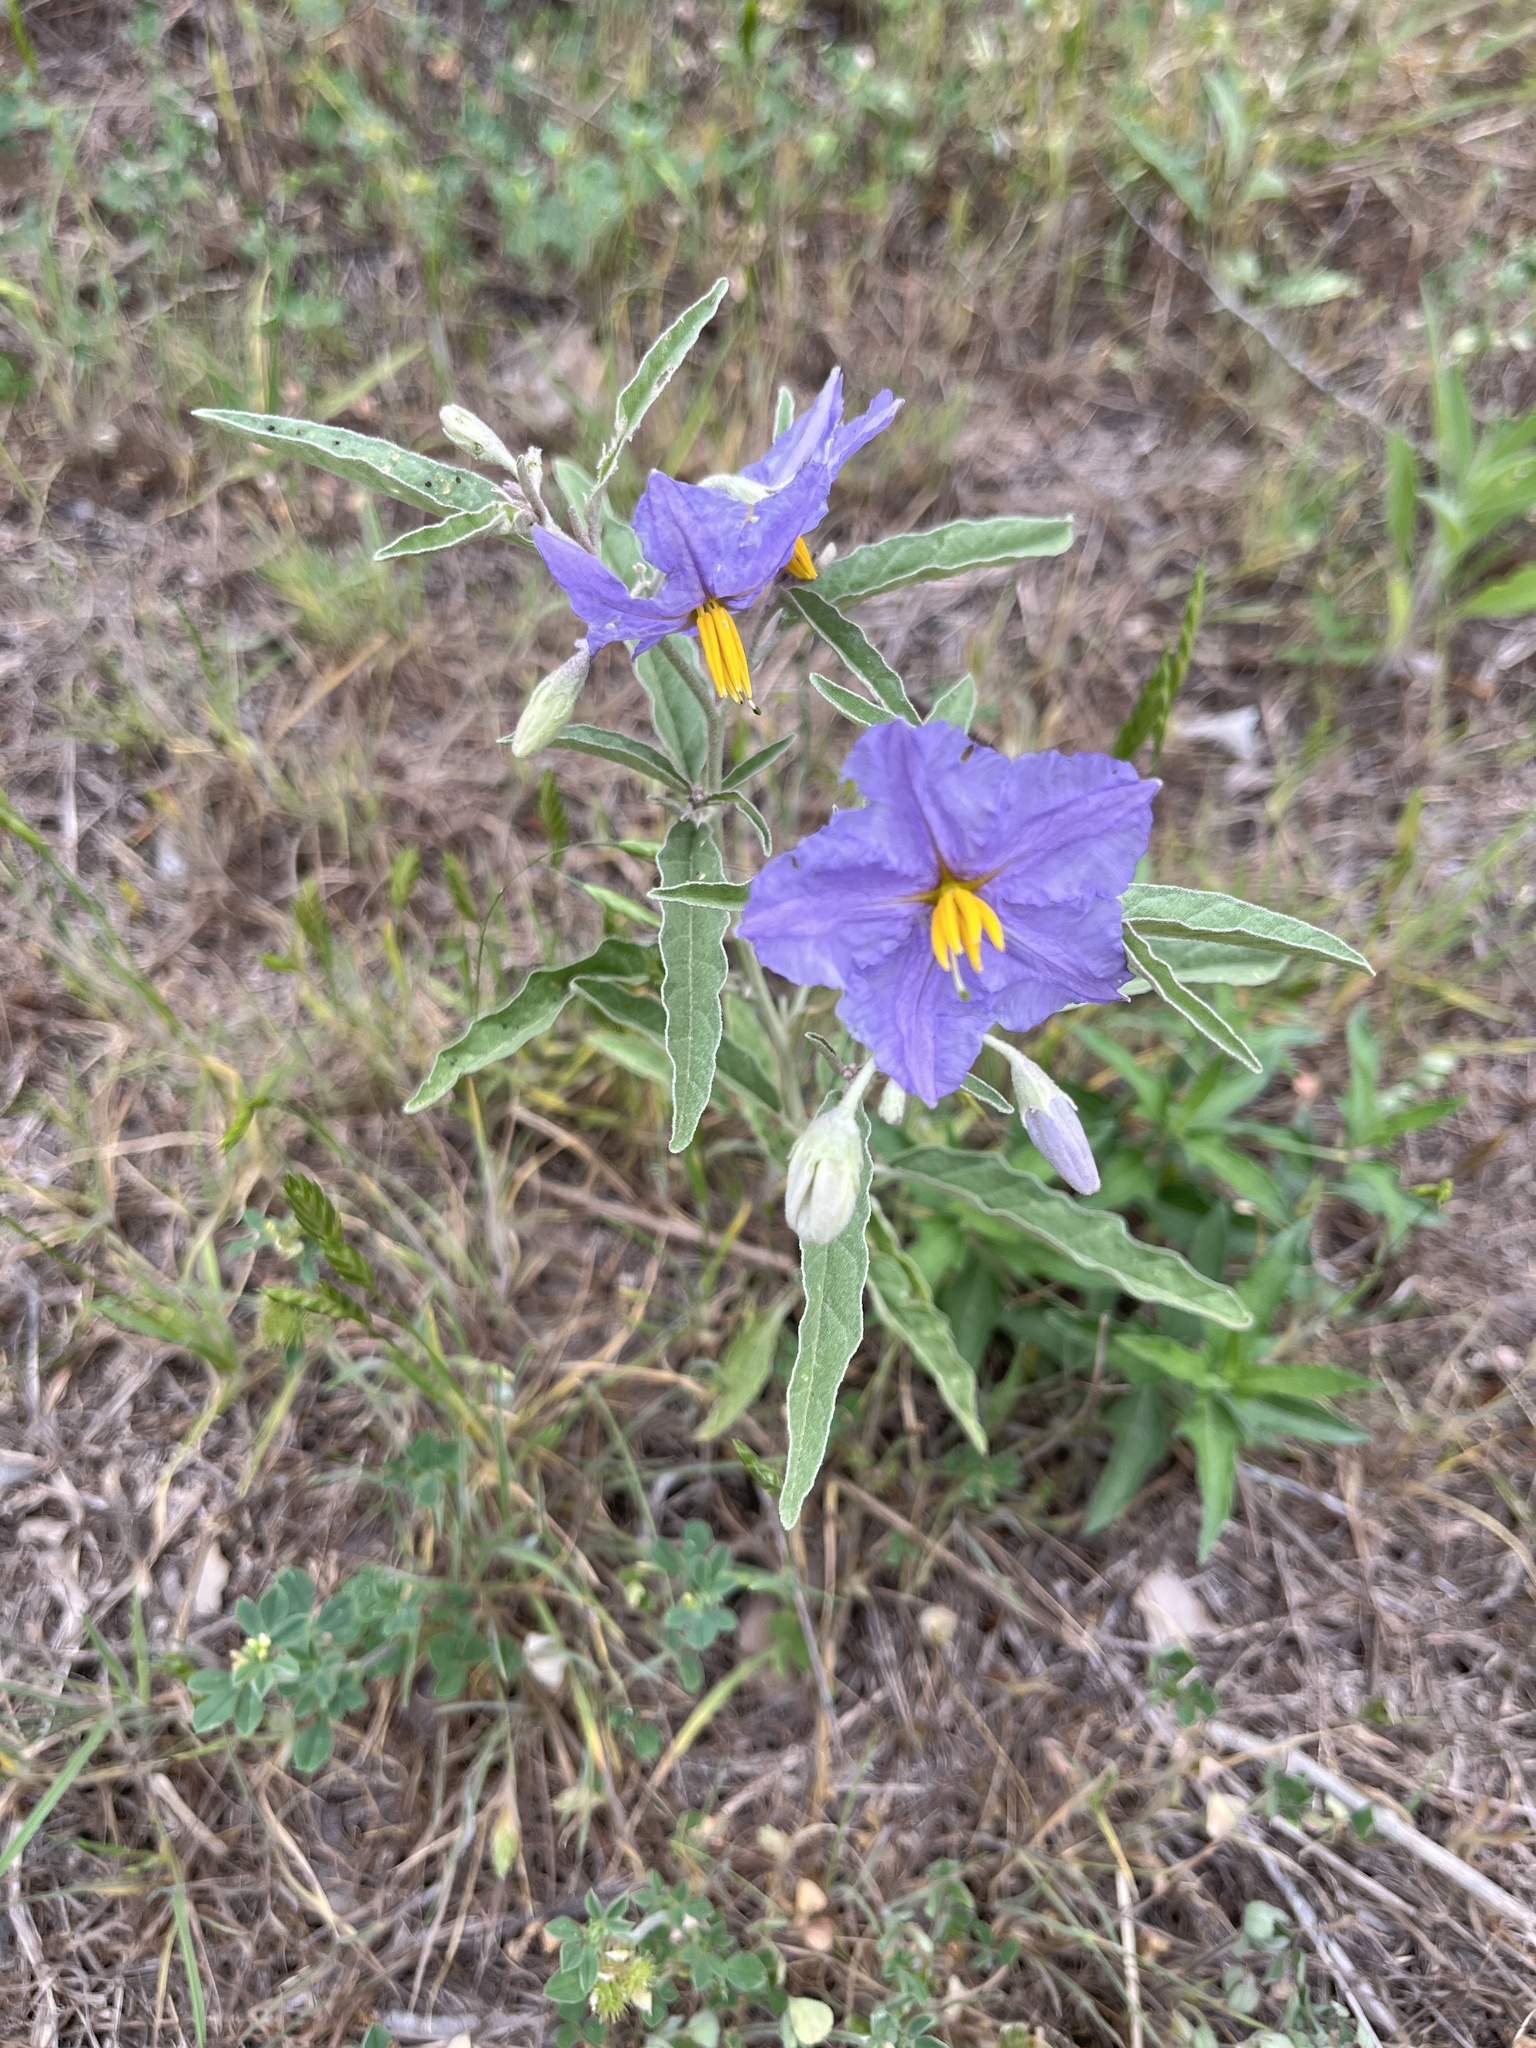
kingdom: Plantae
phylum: Tracheophyta
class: Magnoliopsida
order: Solanales
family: Solanaceae
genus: Solanum
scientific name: Solanum elaeagnifolium
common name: Silverleaf nightshade
